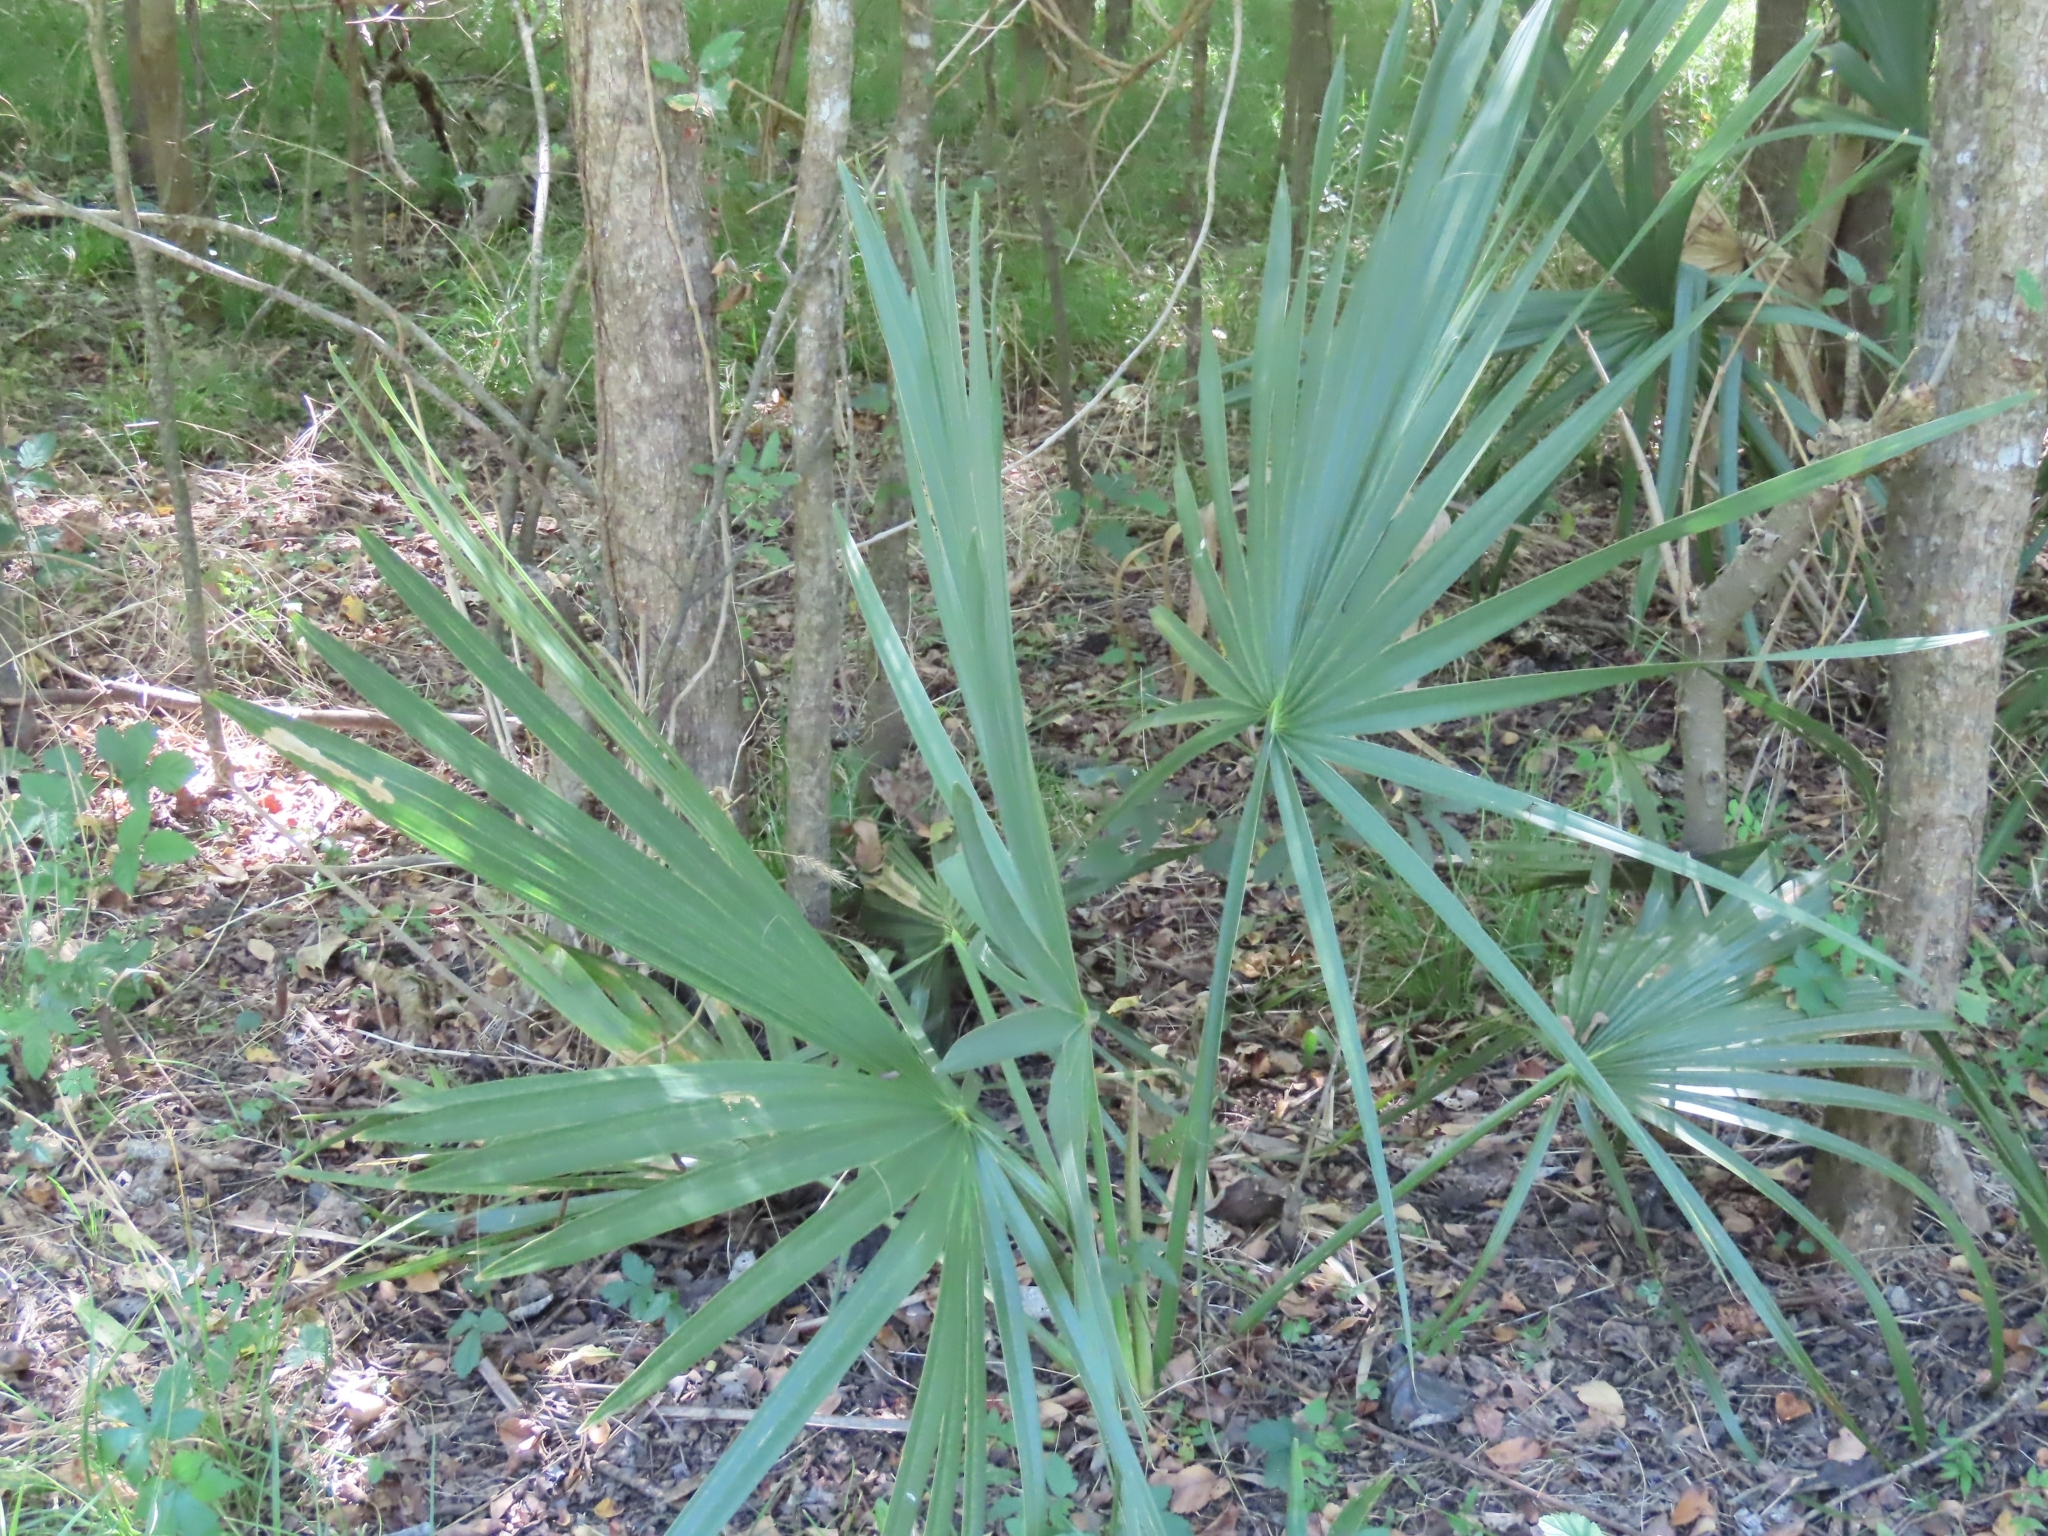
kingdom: Plantae
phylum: Tracheophyta
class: Liliopsida
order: Arecales
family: Arecaceae
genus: Sabal
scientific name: Sabal minor
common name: Dwarf palmetto
